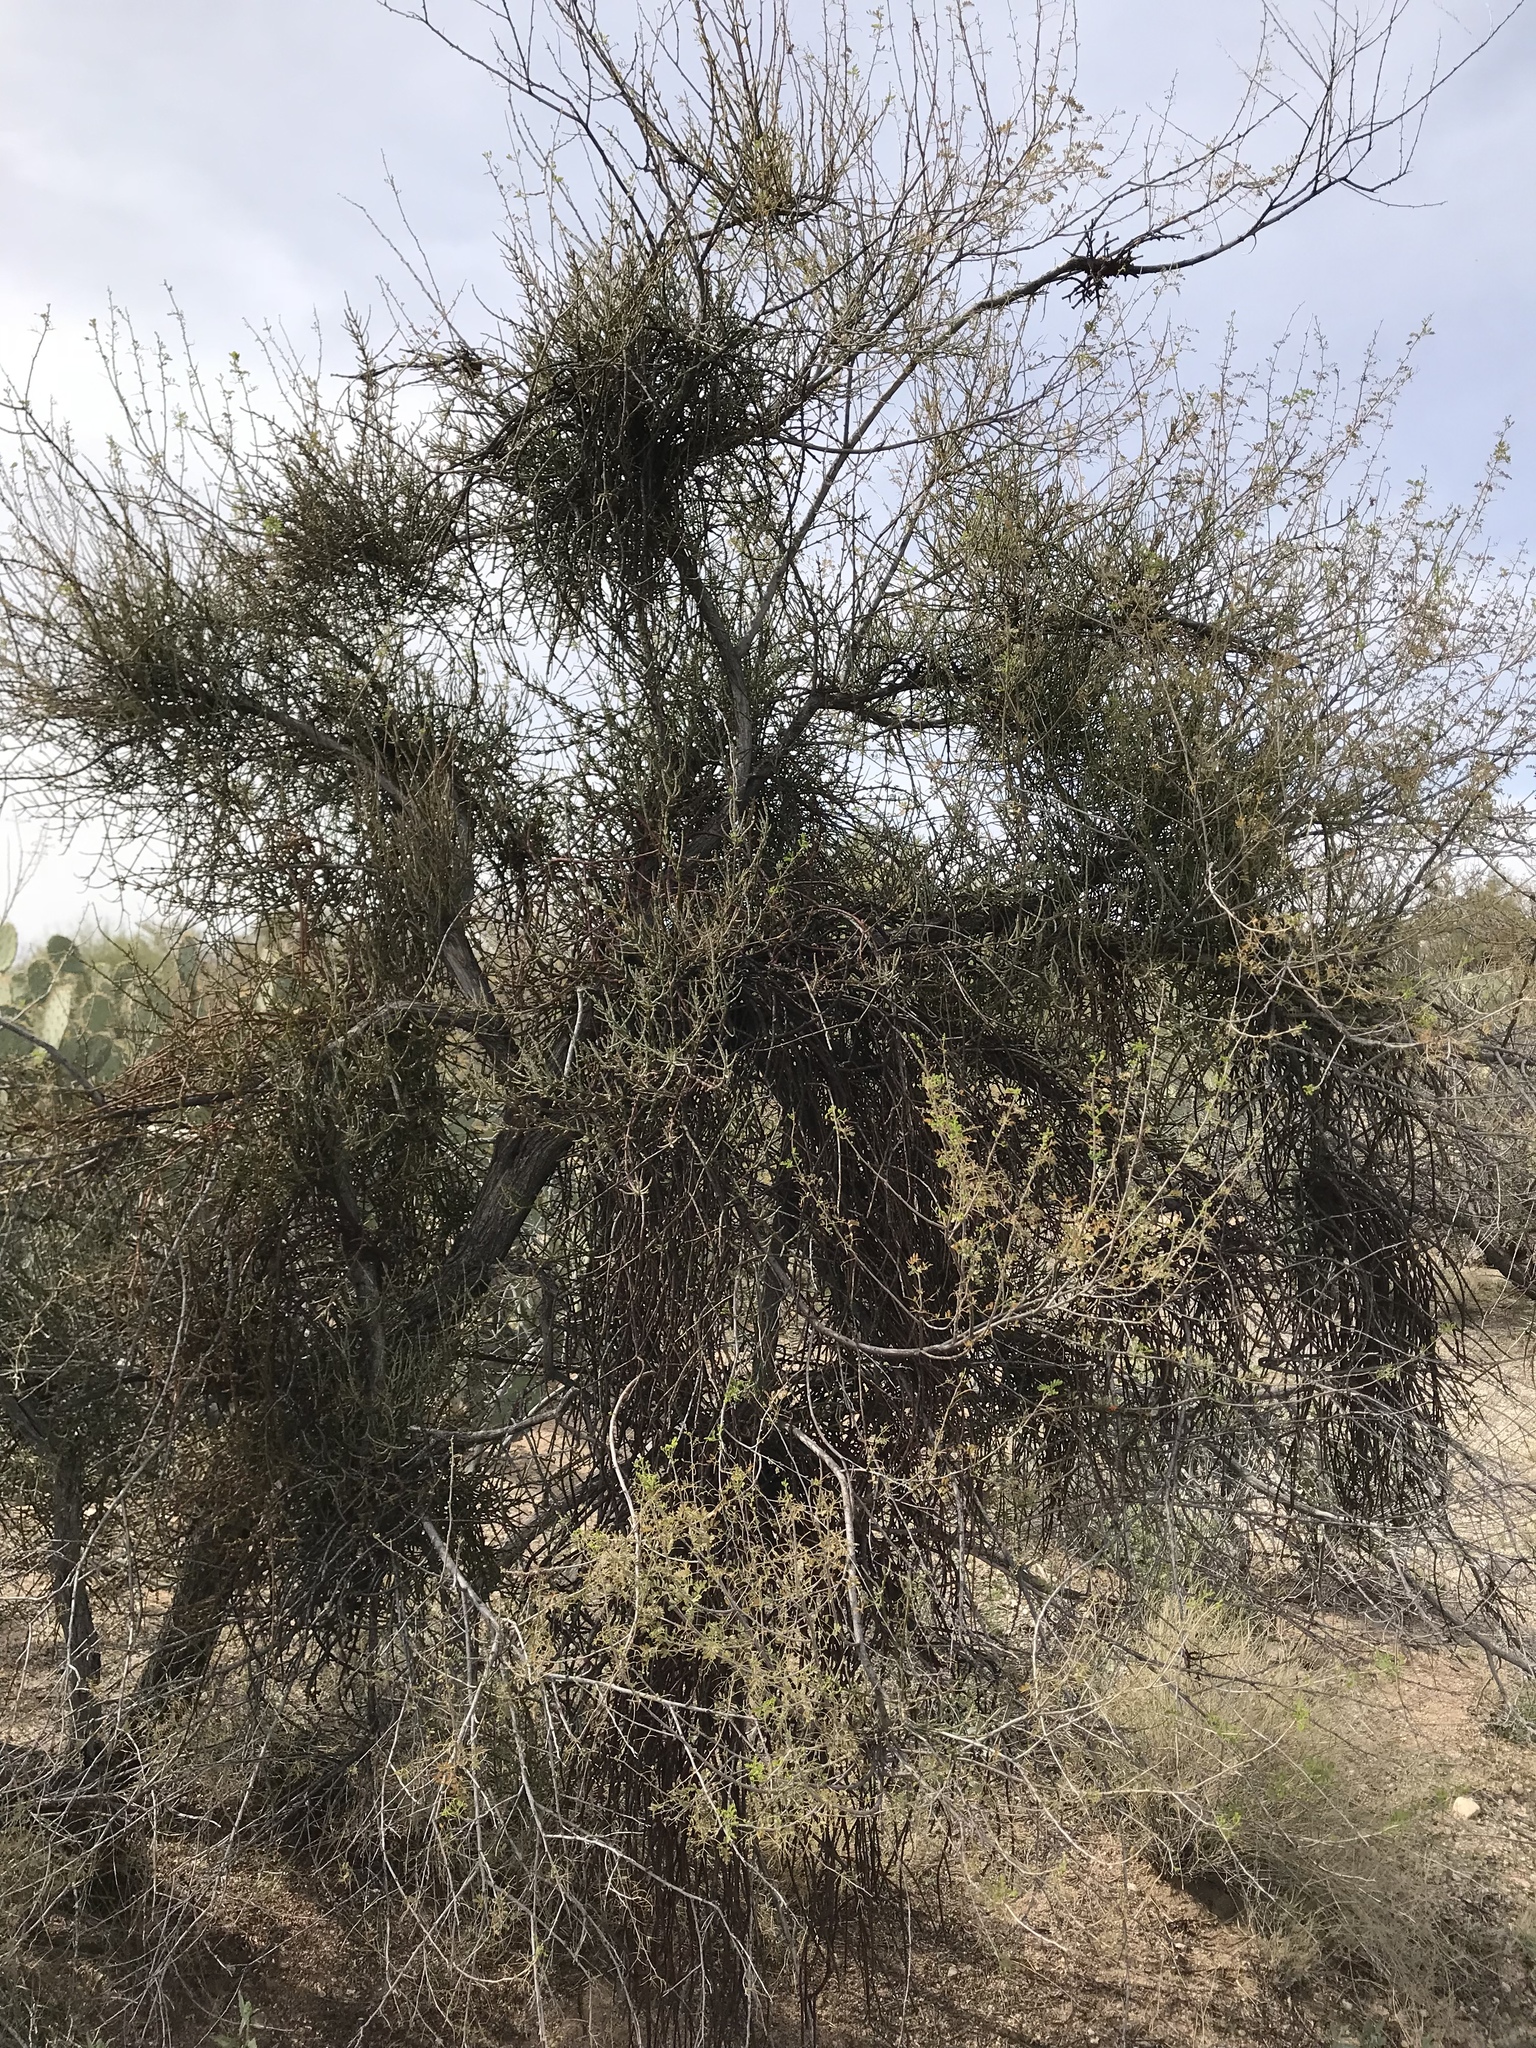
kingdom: Plantae
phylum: Tracheophyta
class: Magnoliopsida
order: Santalales
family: Viscaceae
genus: Phoradendron
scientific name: Phoradendron californicum
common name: Acacia mistletoe
